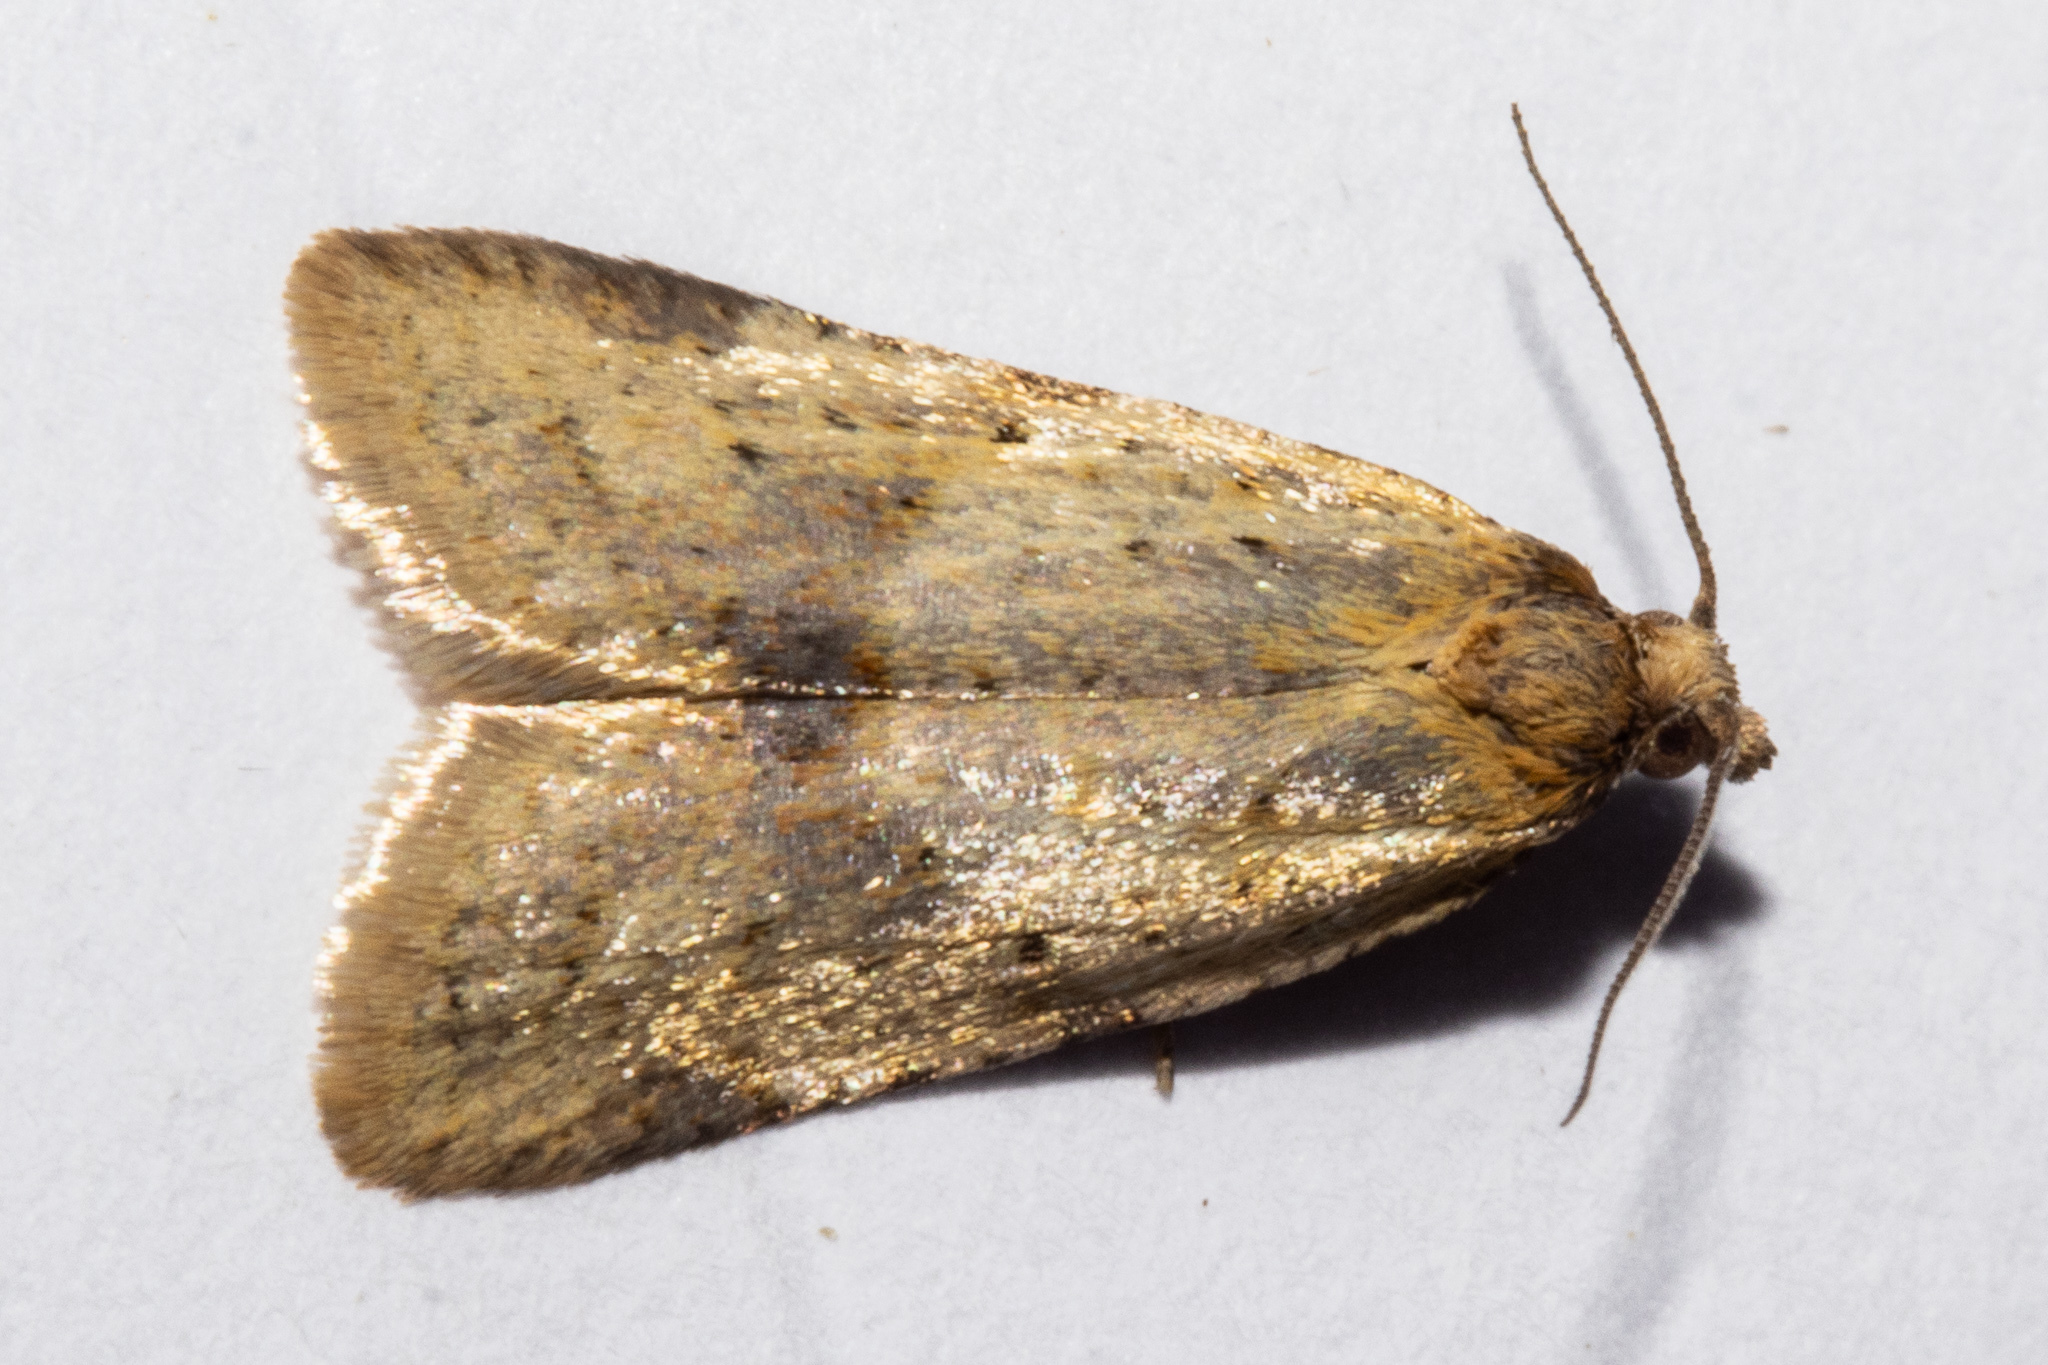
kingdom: Animalia
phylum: Arthropoda
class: Insecta
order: Lepidoptera
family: Tortricidae
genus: Clepsis
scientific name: Clepsis
